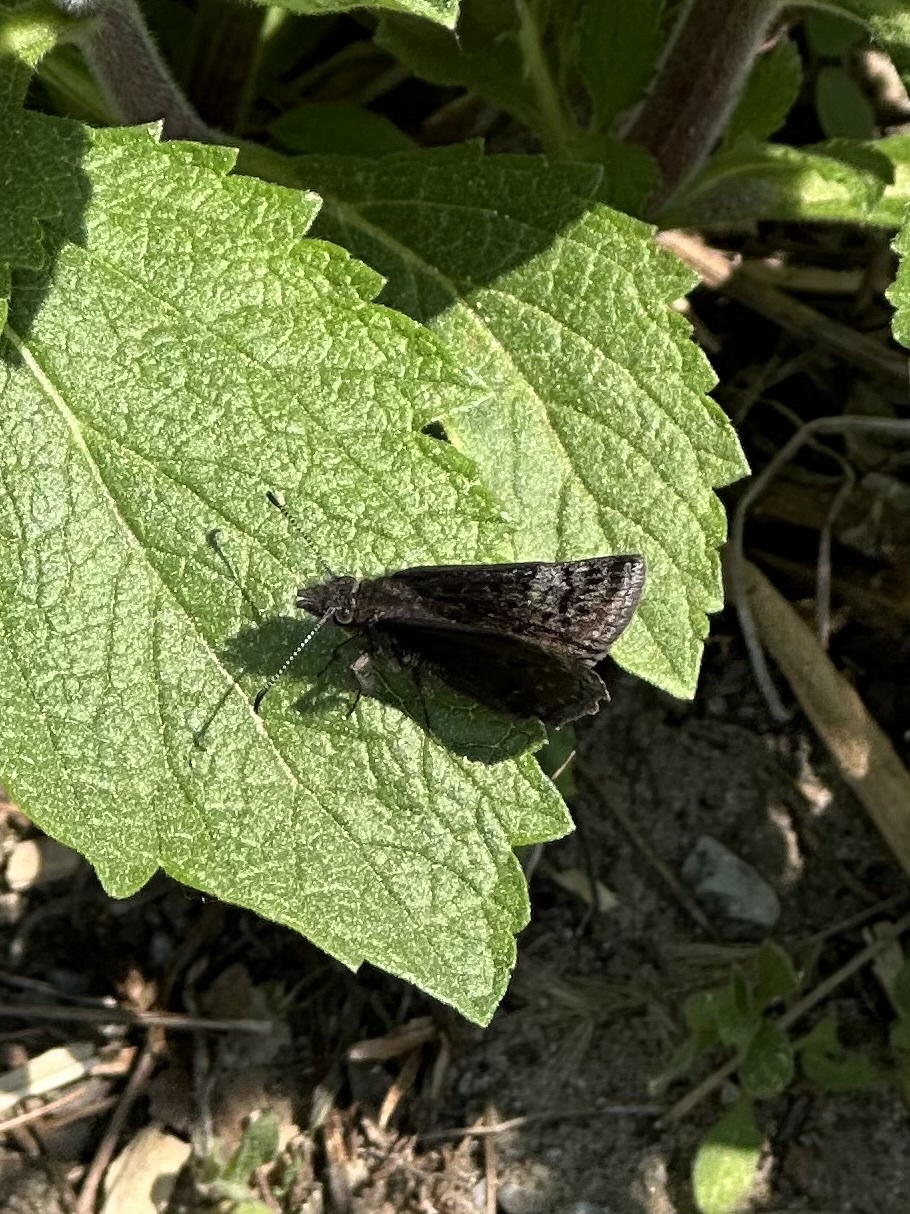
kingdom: Animalia
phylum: Arthropoda
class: Insecta
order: Lepidoptera
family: Hesperiidae
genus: Erynnis
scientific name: Erynnis icelus
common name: Dreamy duskywing
